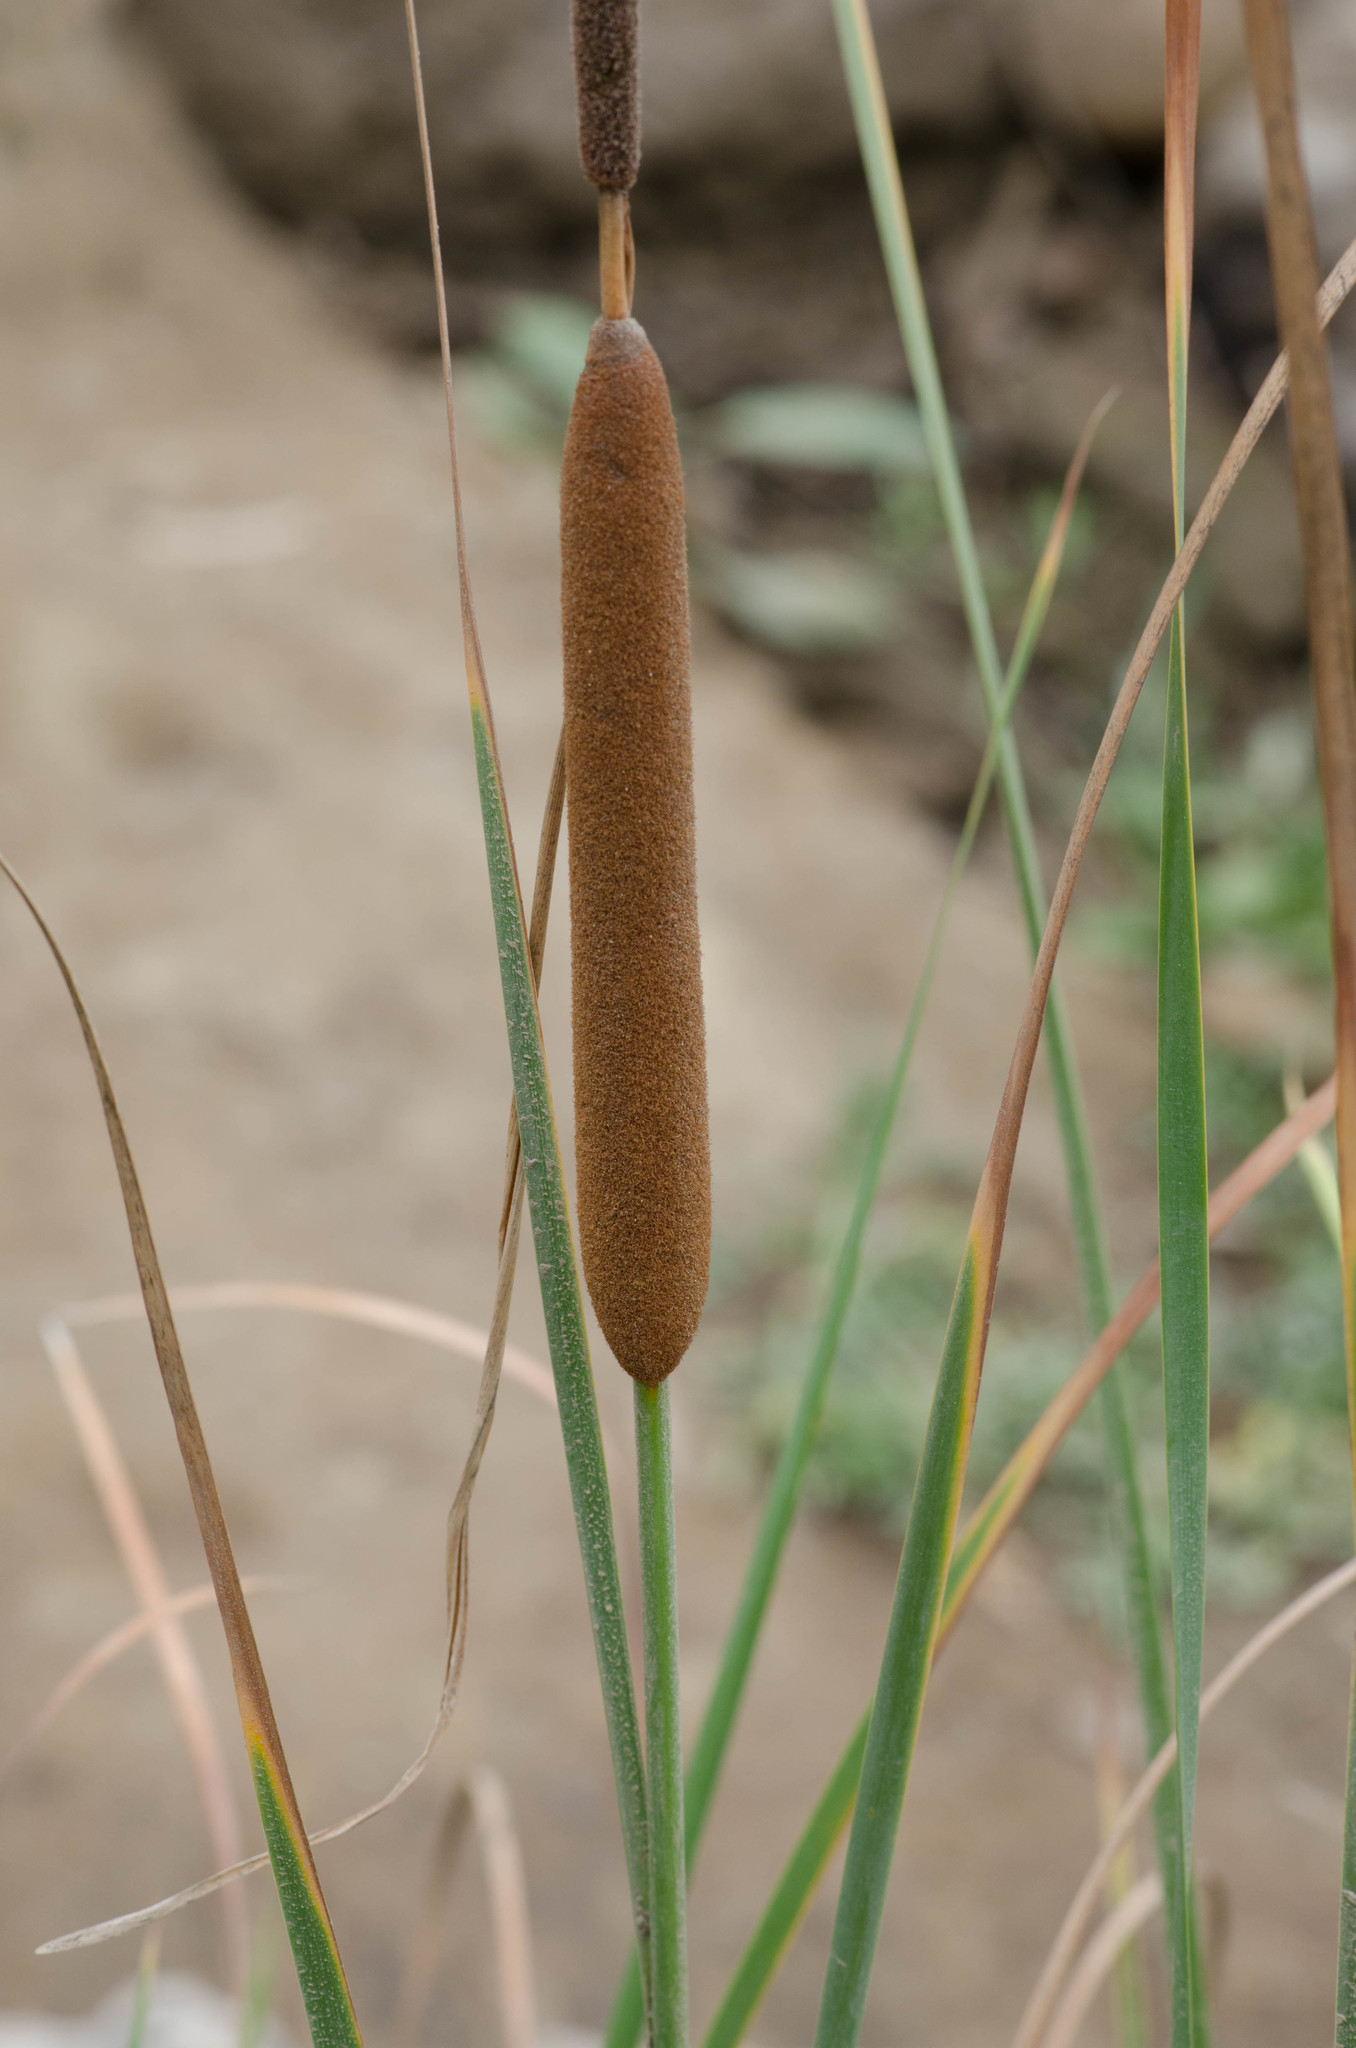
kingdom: Plantae
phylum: Tracheophyta
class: Liliopsida
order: Poales
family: Typhaceae
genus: Typha
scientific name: Typha angustifolia
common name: Lesser bulrush
